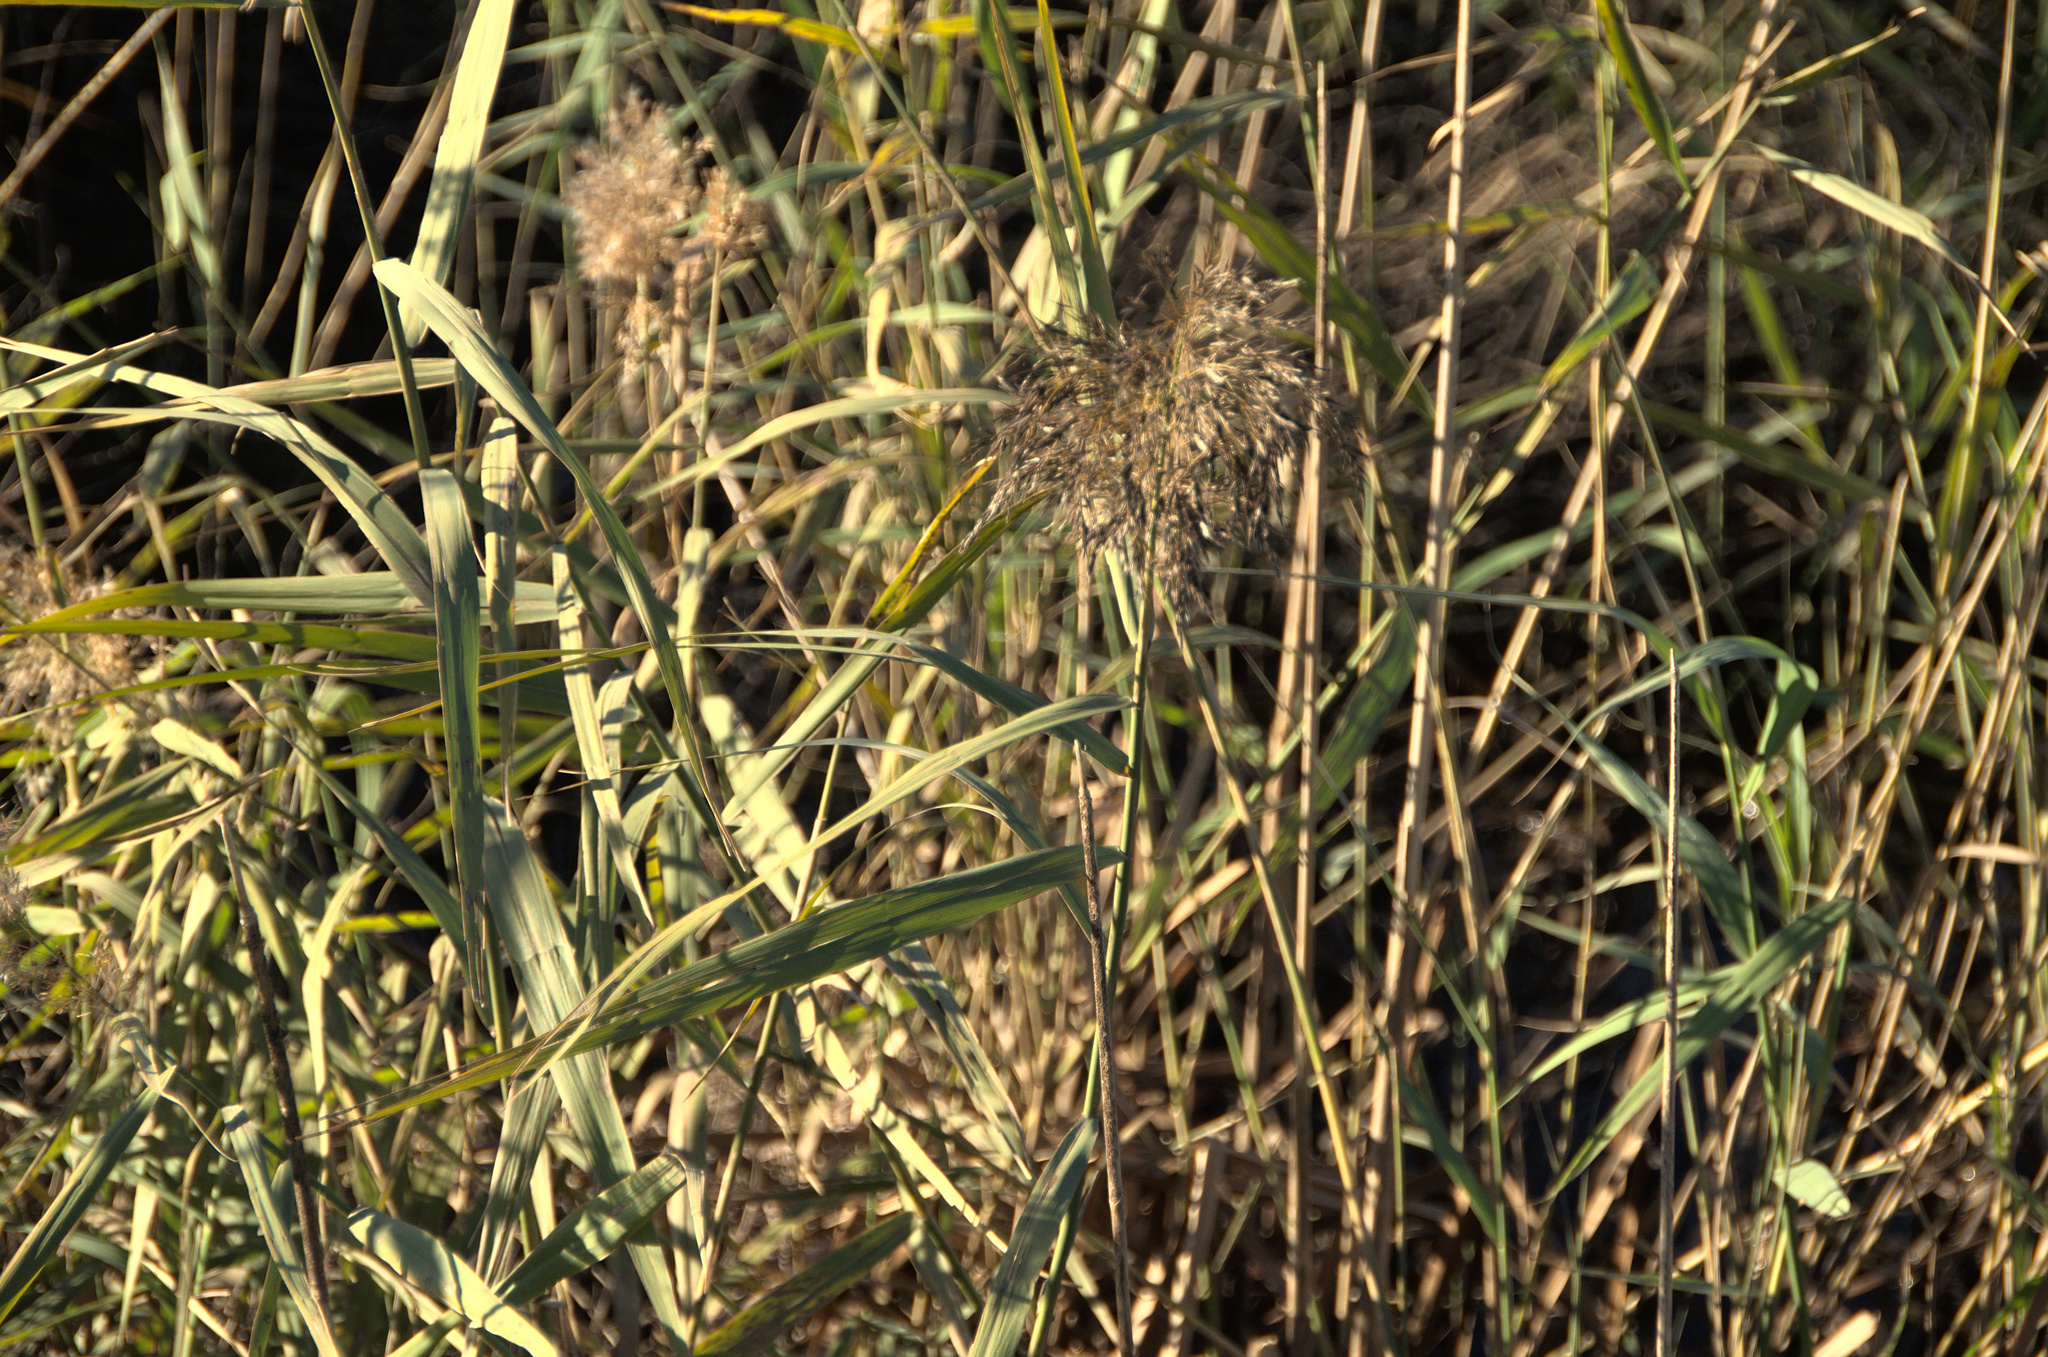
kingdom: Plantae
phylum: Tracheophyta
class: Liliopsida
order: Poales
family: Poaceae
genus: Phragmites
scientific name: Phragmites australis
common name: Common reed
